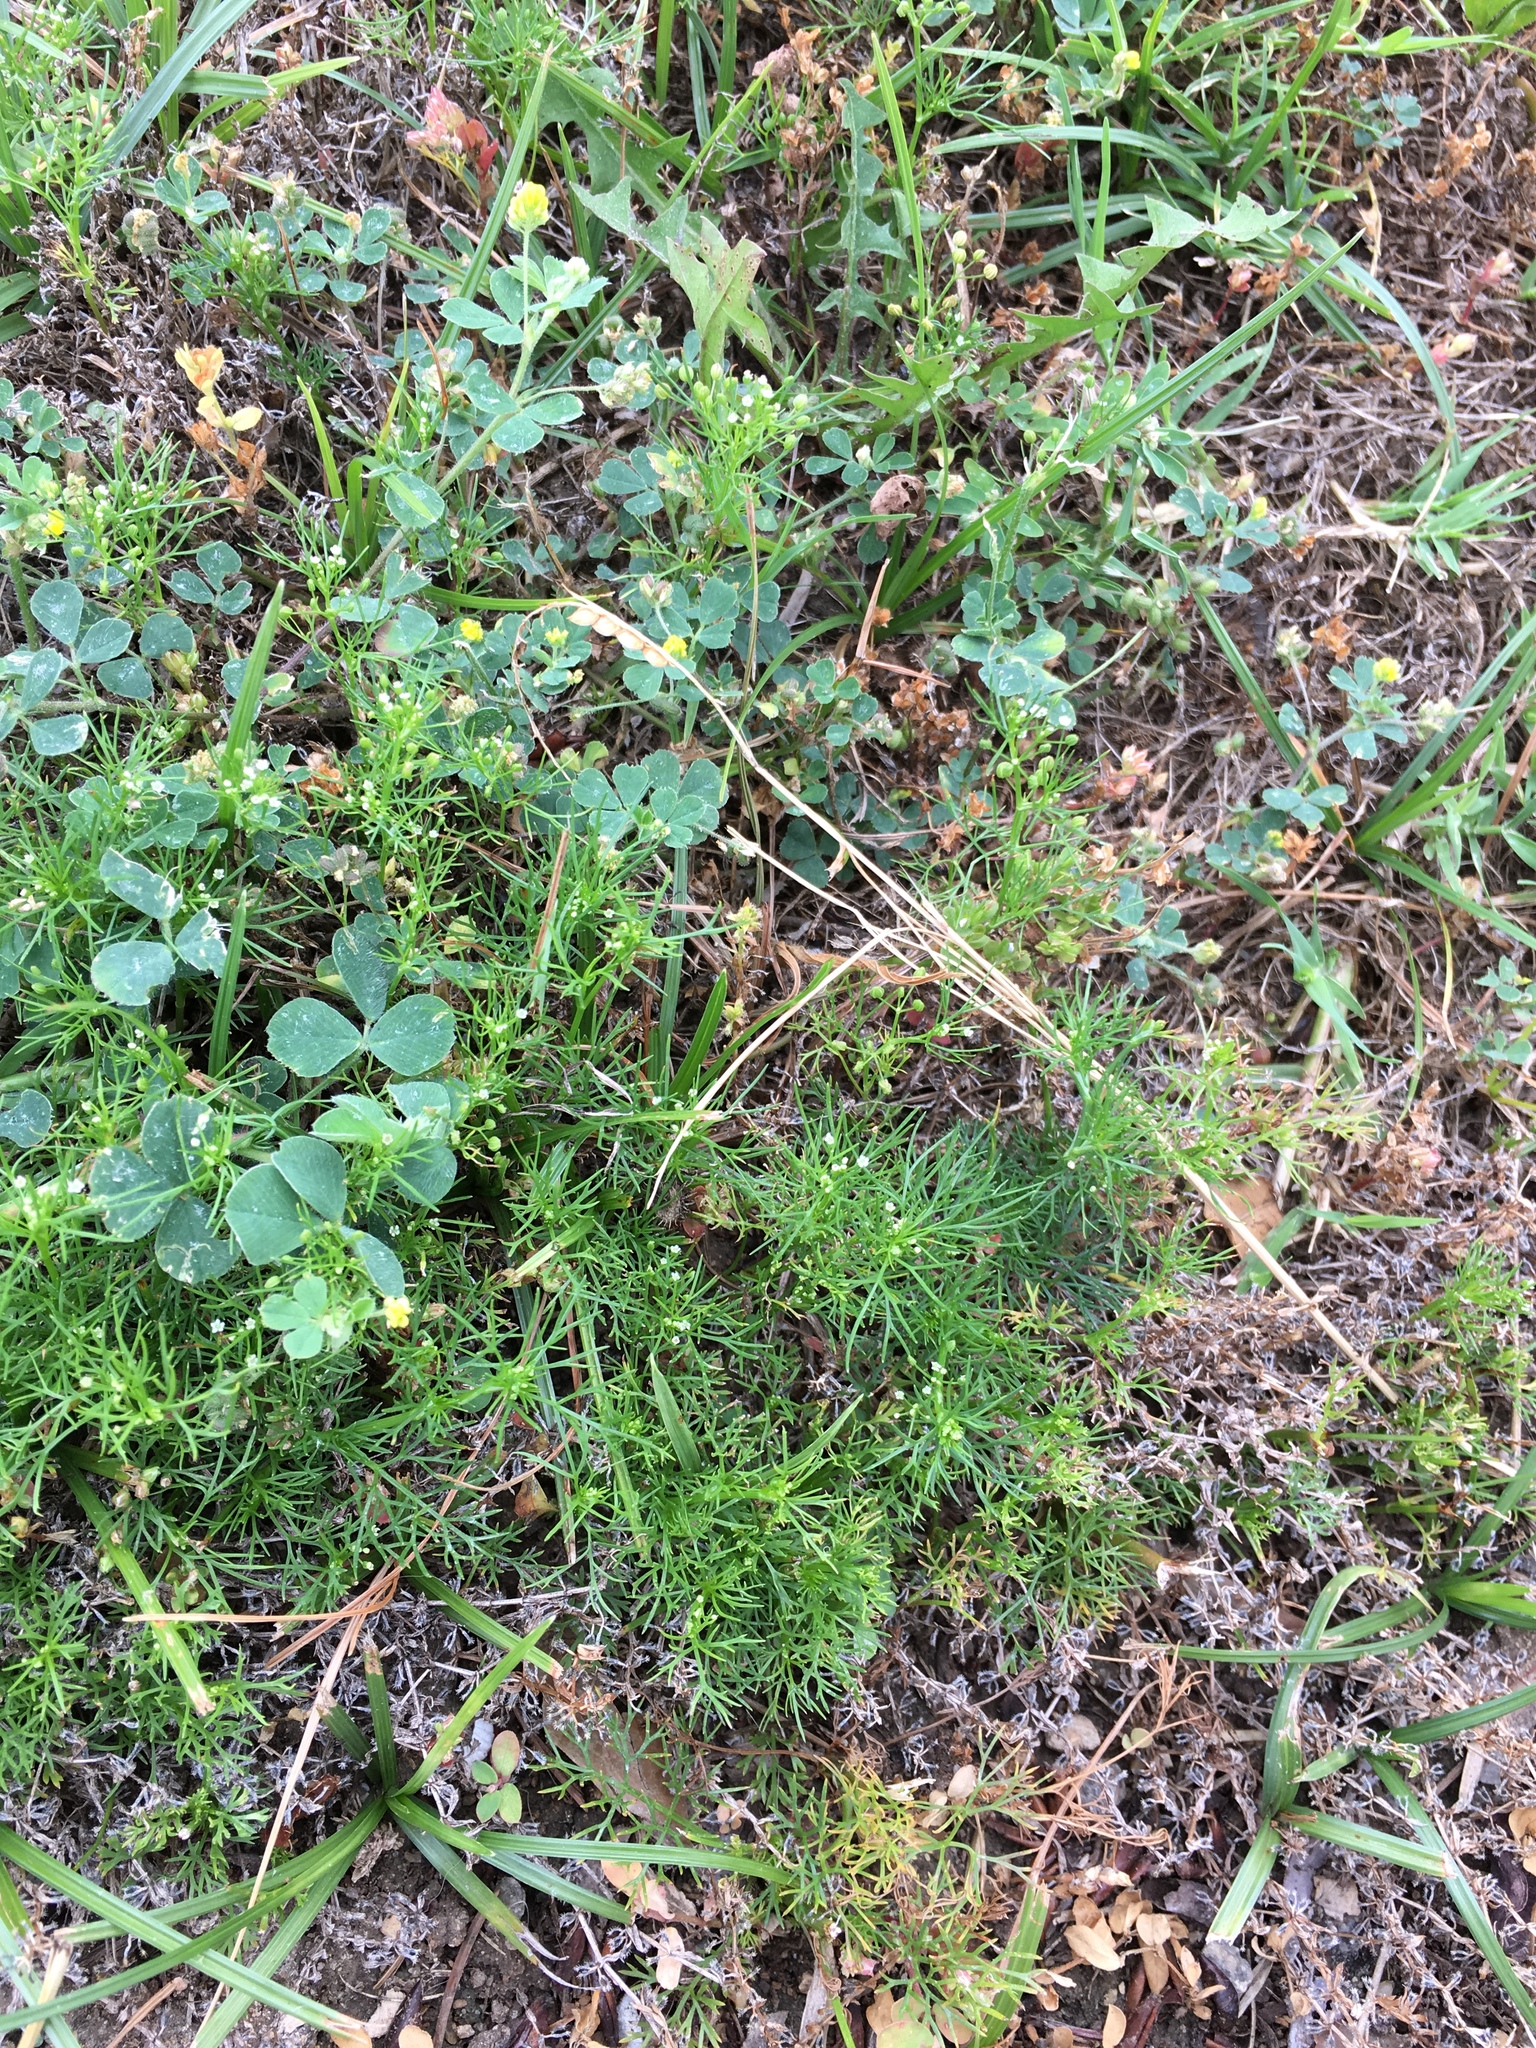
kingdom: Plantae
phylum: Tracheophyta
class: Magnoliopsida
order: Apiales
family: Apiaceae
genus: Cyclospermum
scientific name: Cyclospermum leptophyllum
